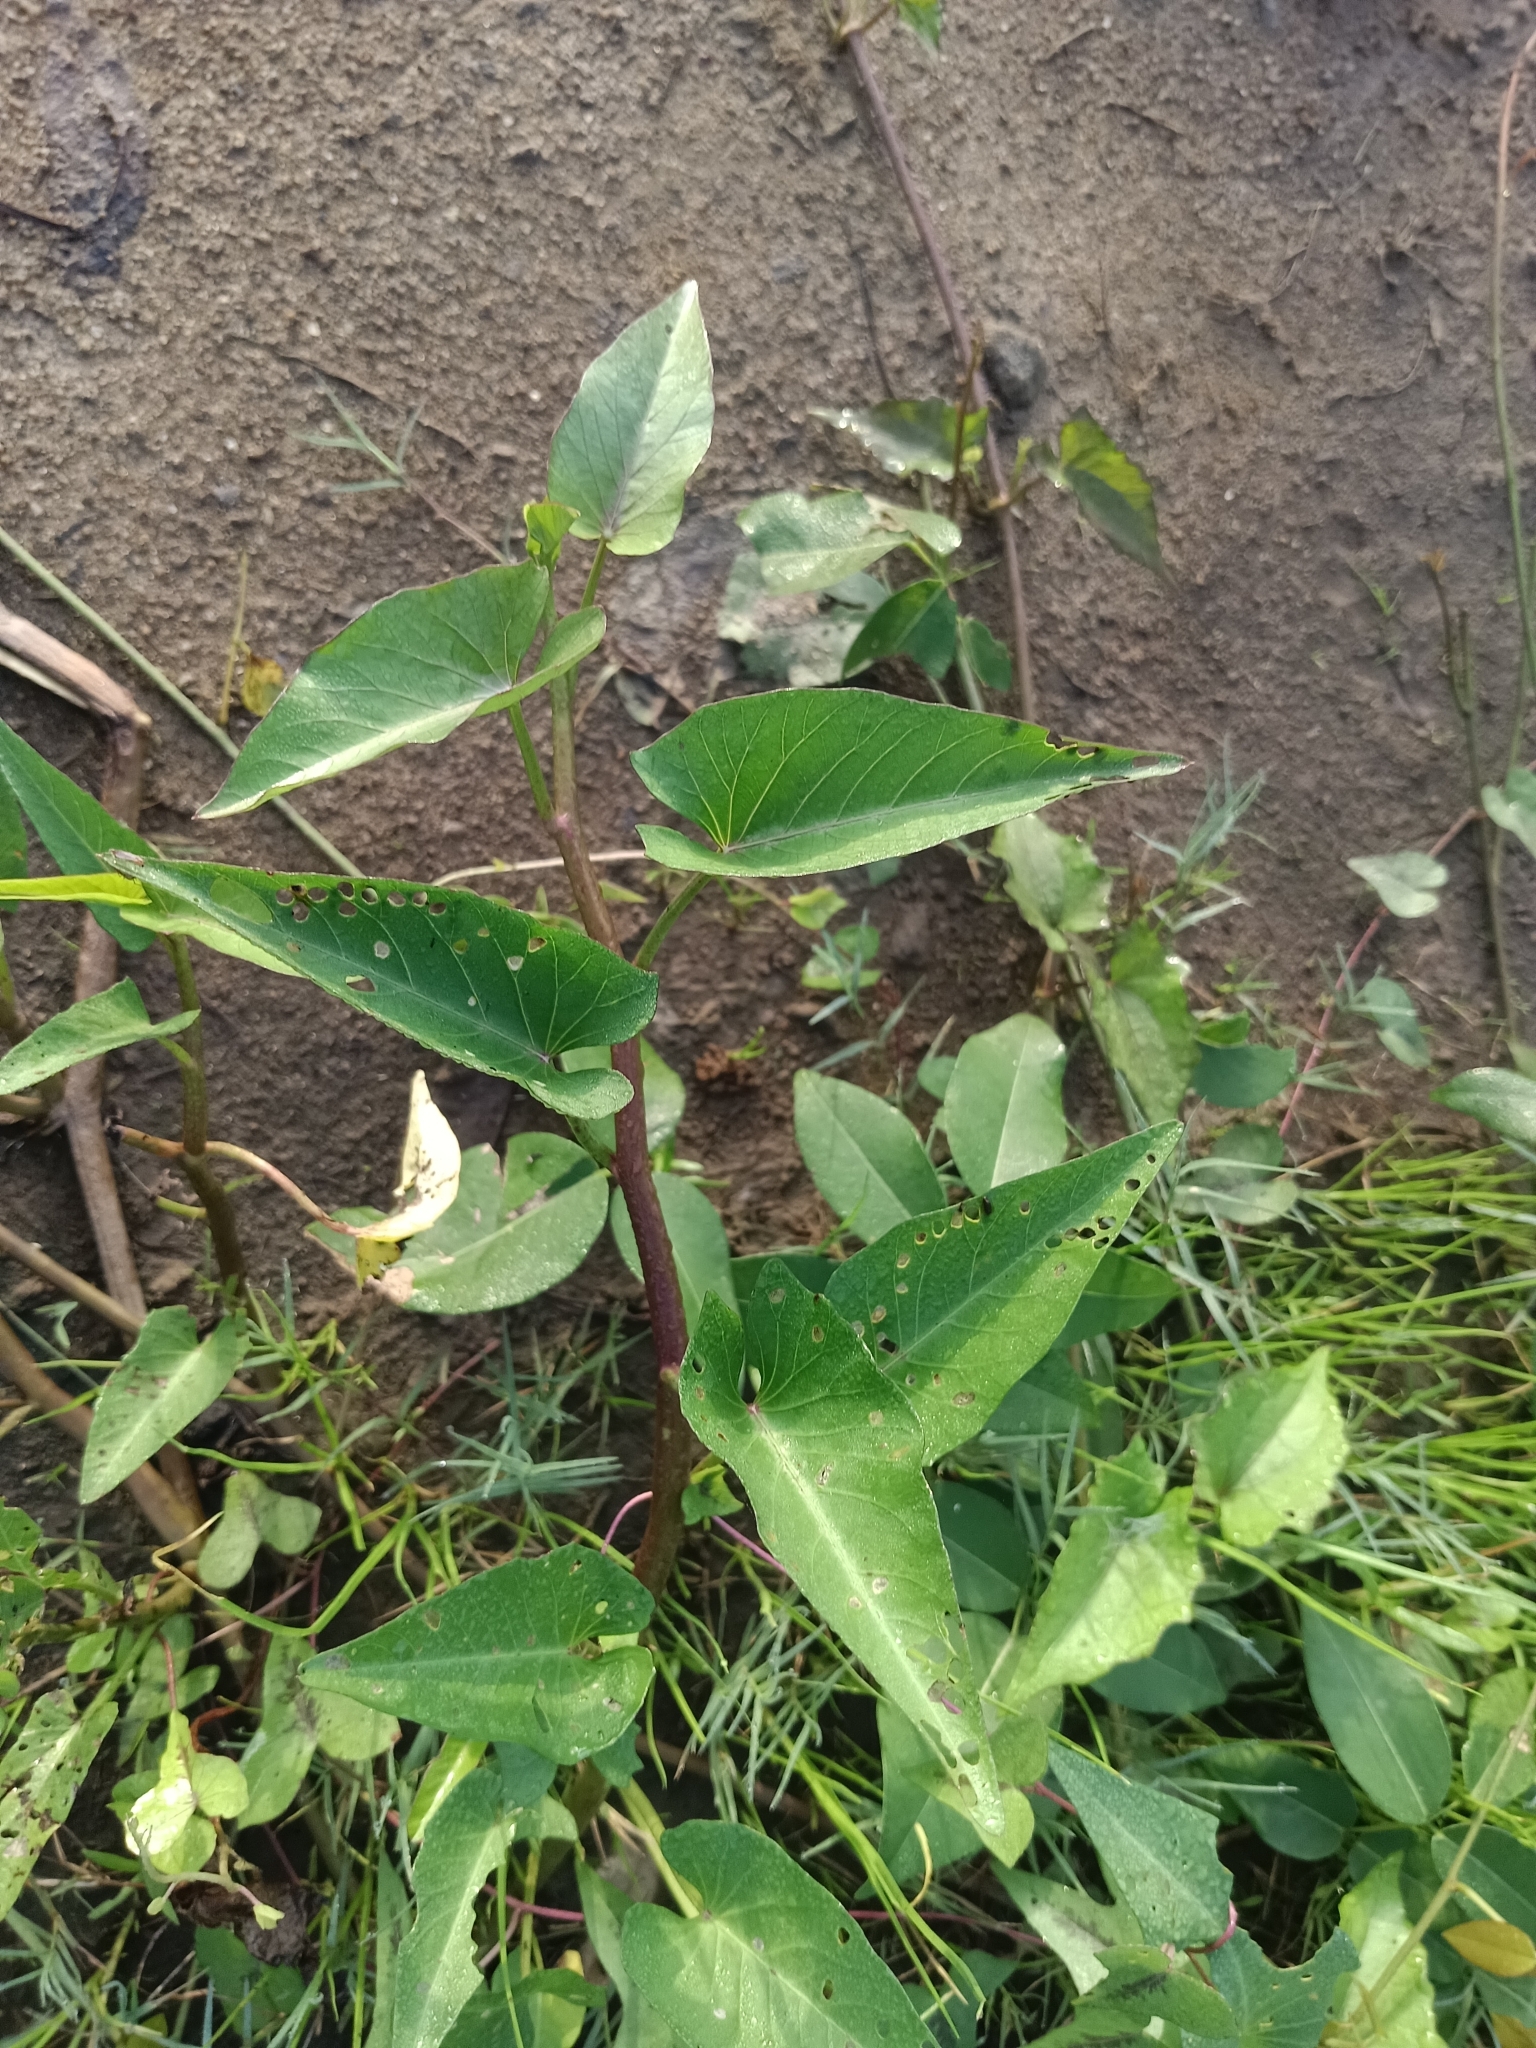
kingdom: Plantae
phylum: Tracheophyta
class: Magnoliopsida
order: Solanales
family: Convolvulaceae
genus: Ipomoea
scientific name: Ipomoea aquatica
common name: Swamp morning-glory
